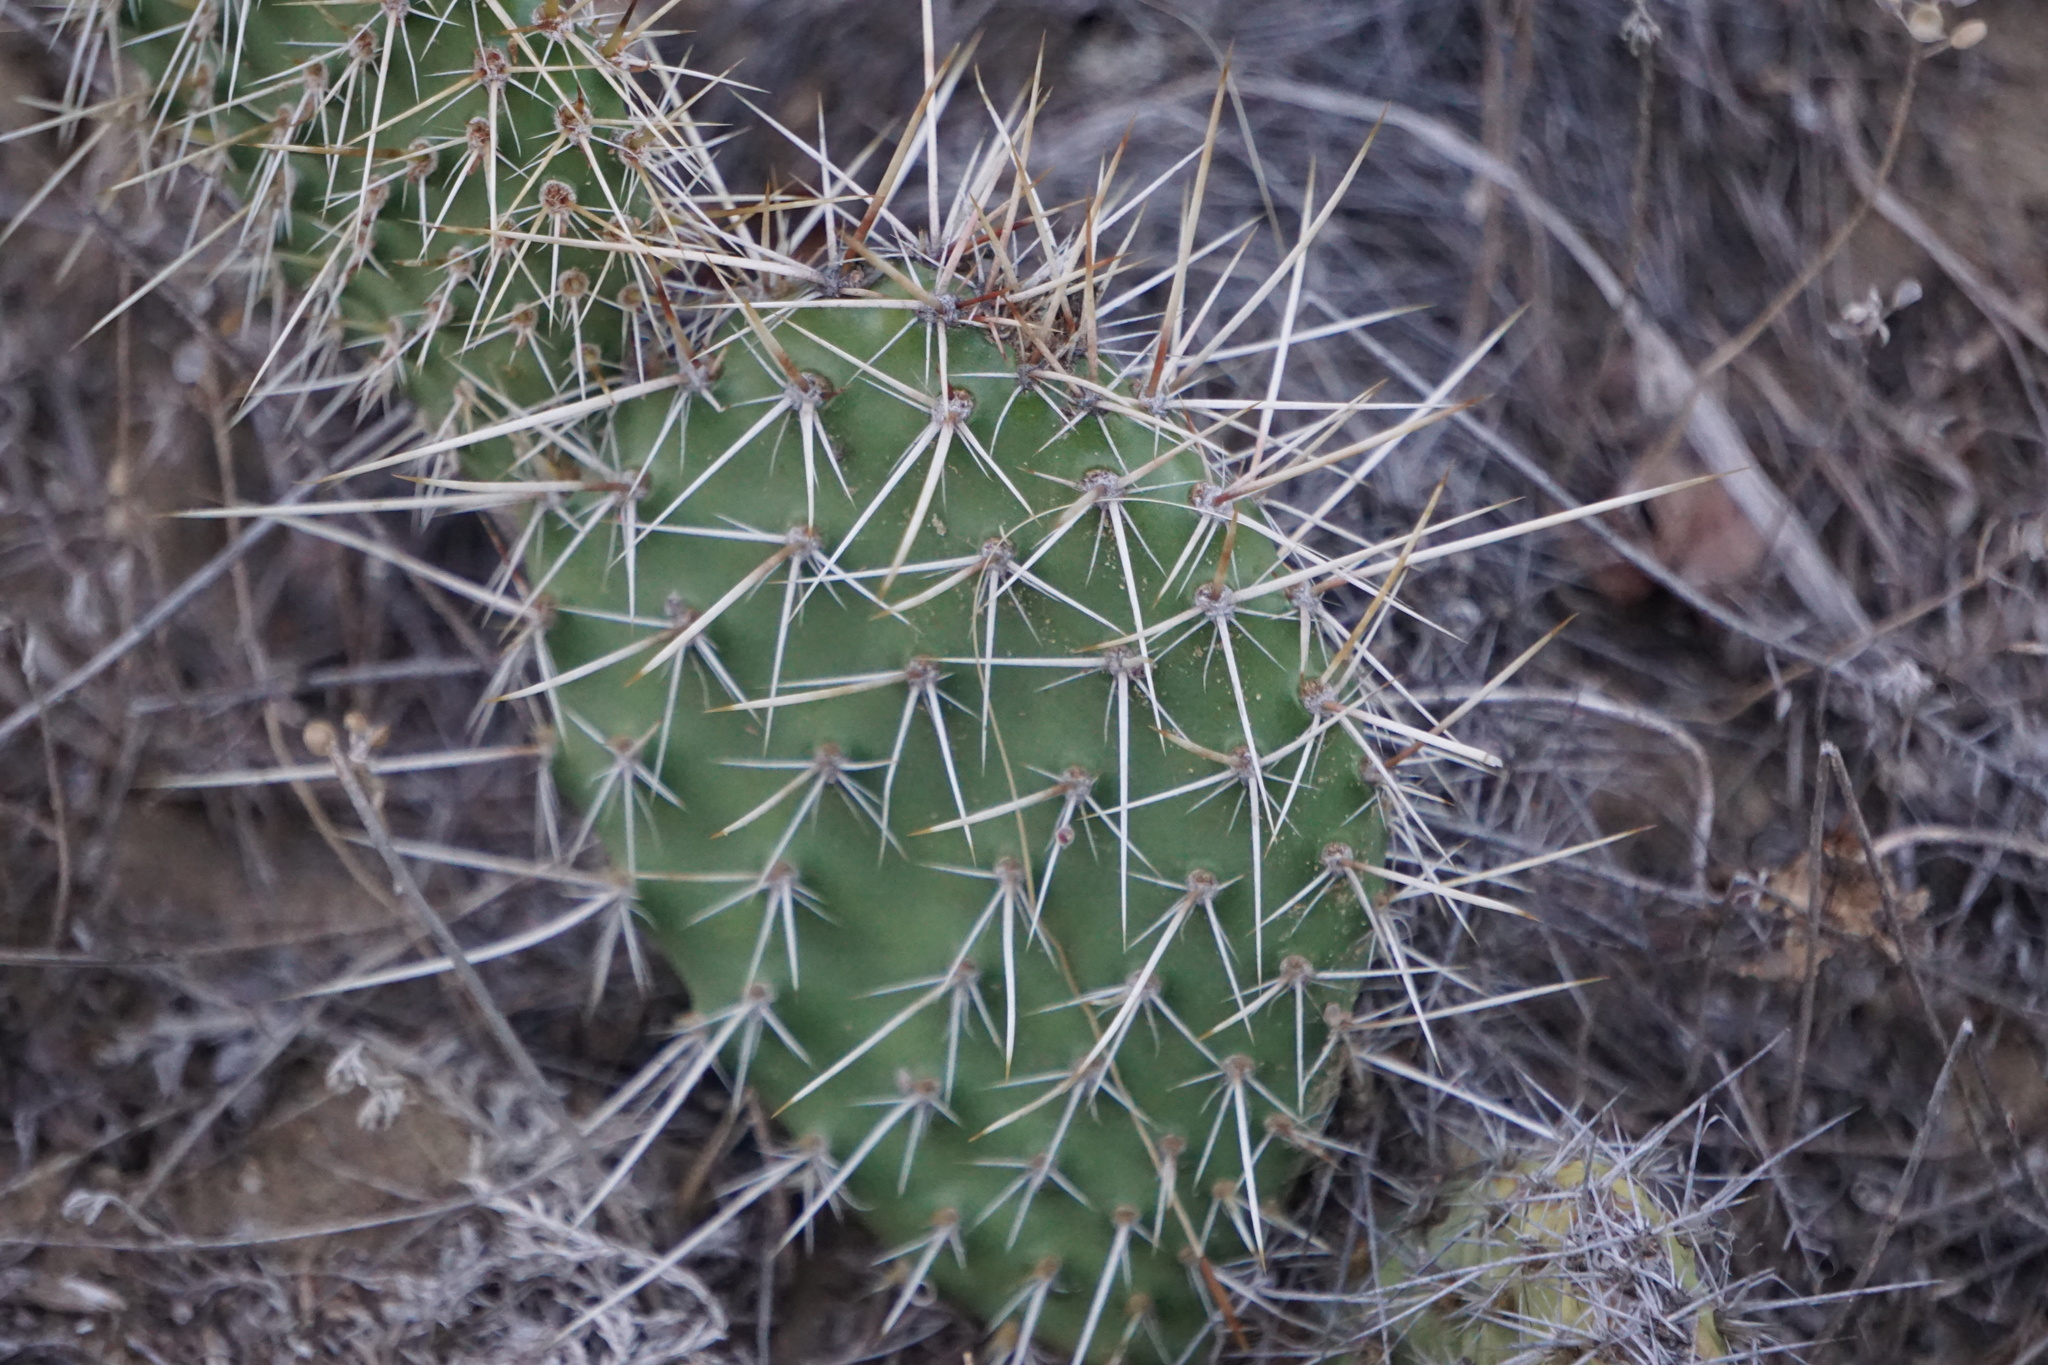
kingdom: Plantae
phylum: Tracheophyta
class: Magnoliopsida
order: Caryophyllales
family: Cactaceae
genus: Opuntia
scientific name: Opuntia polyacantha
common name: Plains prickly-pear
